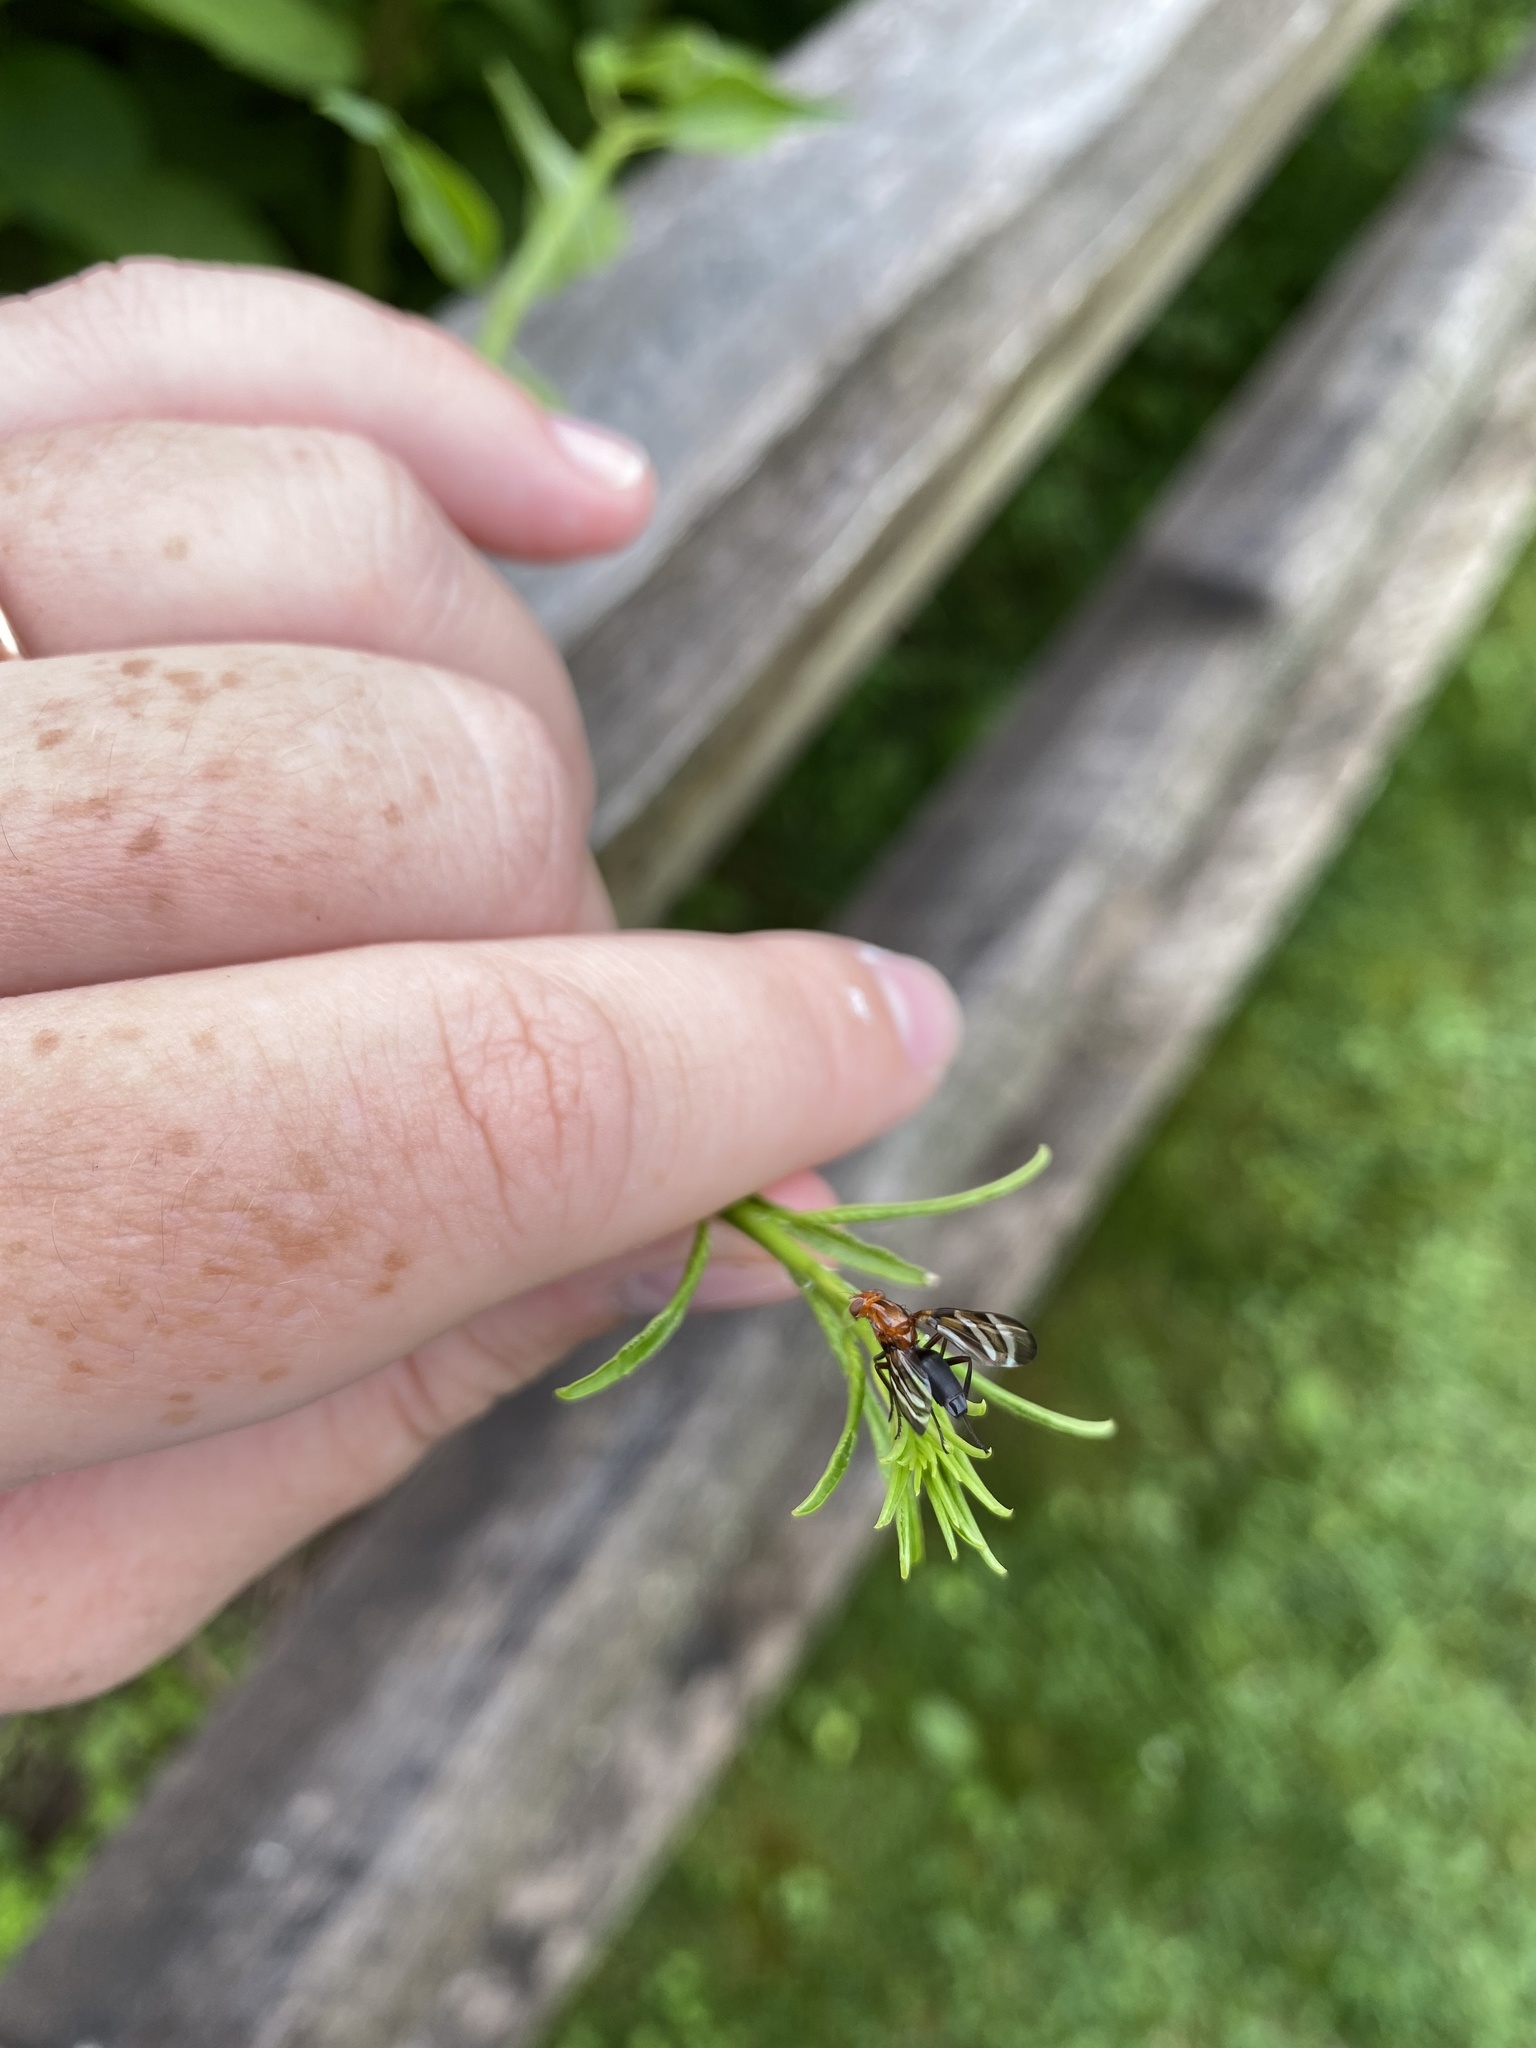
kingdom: Animalia
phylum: Arthropoda
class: Insecta
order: Diptera
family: Ulidiidae
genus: Tritoxa
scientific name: Tritoxa incurva
